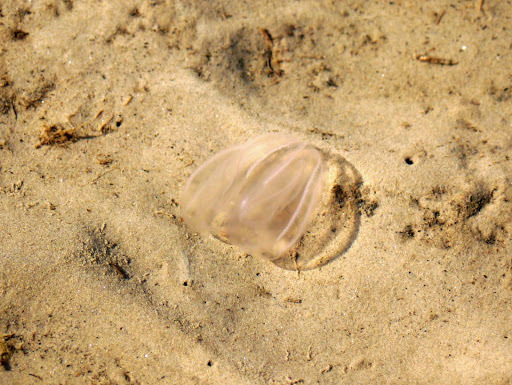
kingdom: Animalia
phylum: Ctenophora
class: Tentaculata
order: Lobata
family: Bolinopsidae
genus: Mnemiopsis
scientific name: Mnemiopsis leidyi
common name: American comb jelly
